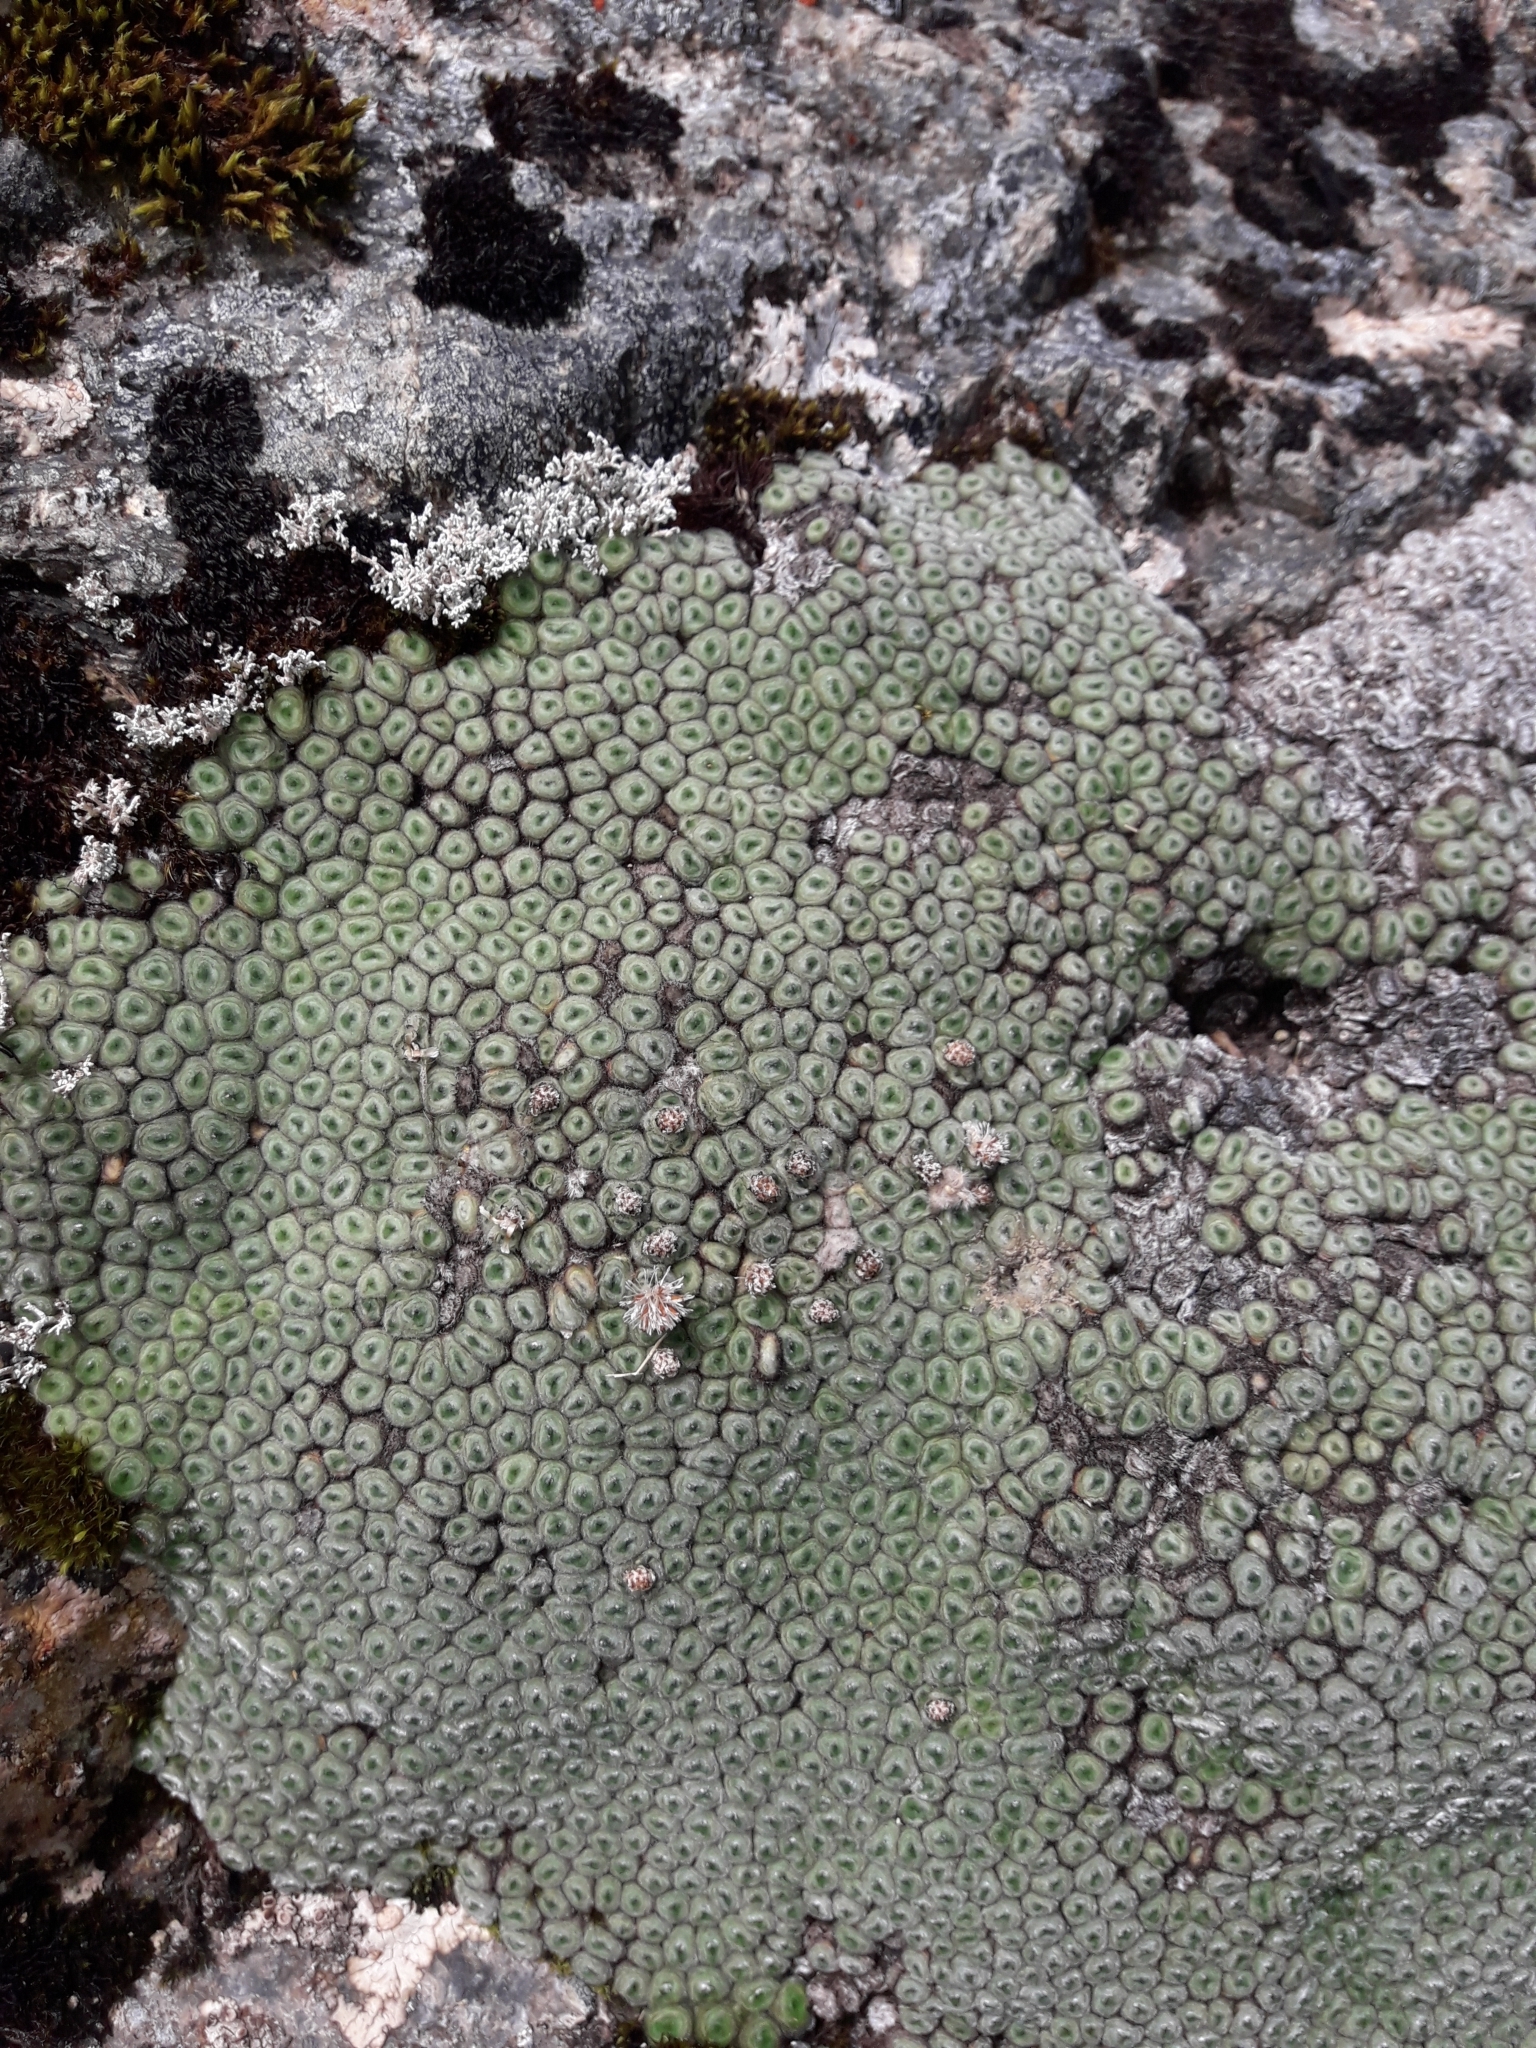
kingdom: Plantae
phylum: Tracheophyta
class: Magnoliopsida
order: Asterales
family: Asteraceae
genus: Raoulia
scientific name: Raoulia rubra
